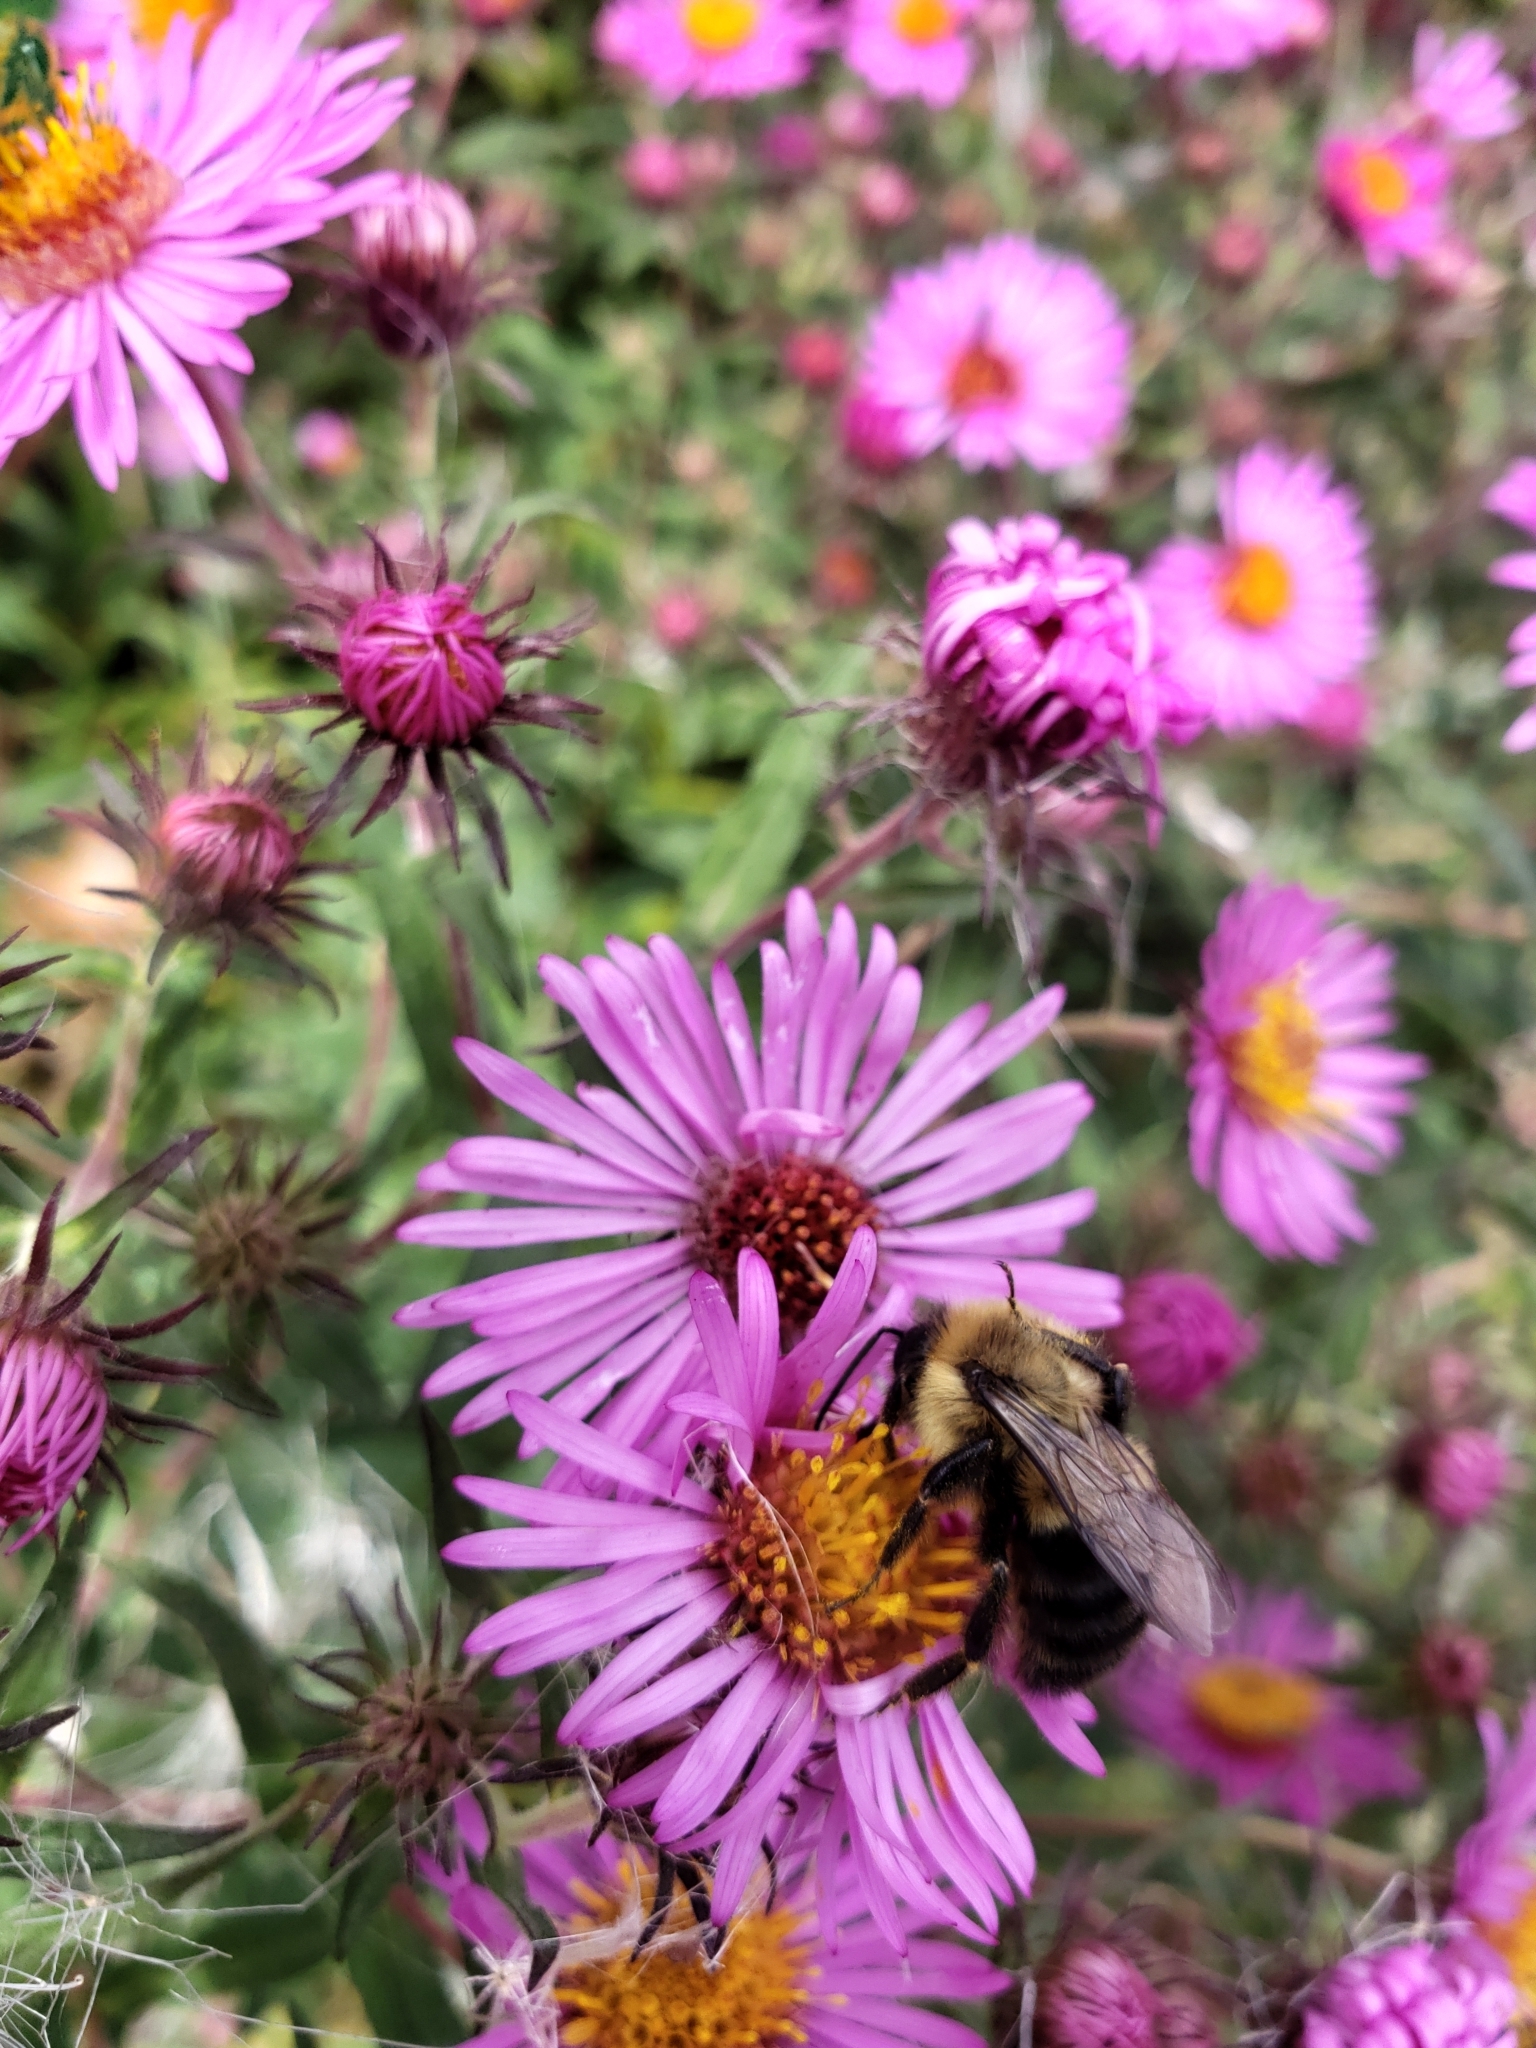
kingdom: Animalia
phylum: Arthropoda
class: Insecta
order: Hymenoptera
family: Apidae
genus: Bombus
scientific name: Bombus impatiens
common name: Common eastern bumble bee
